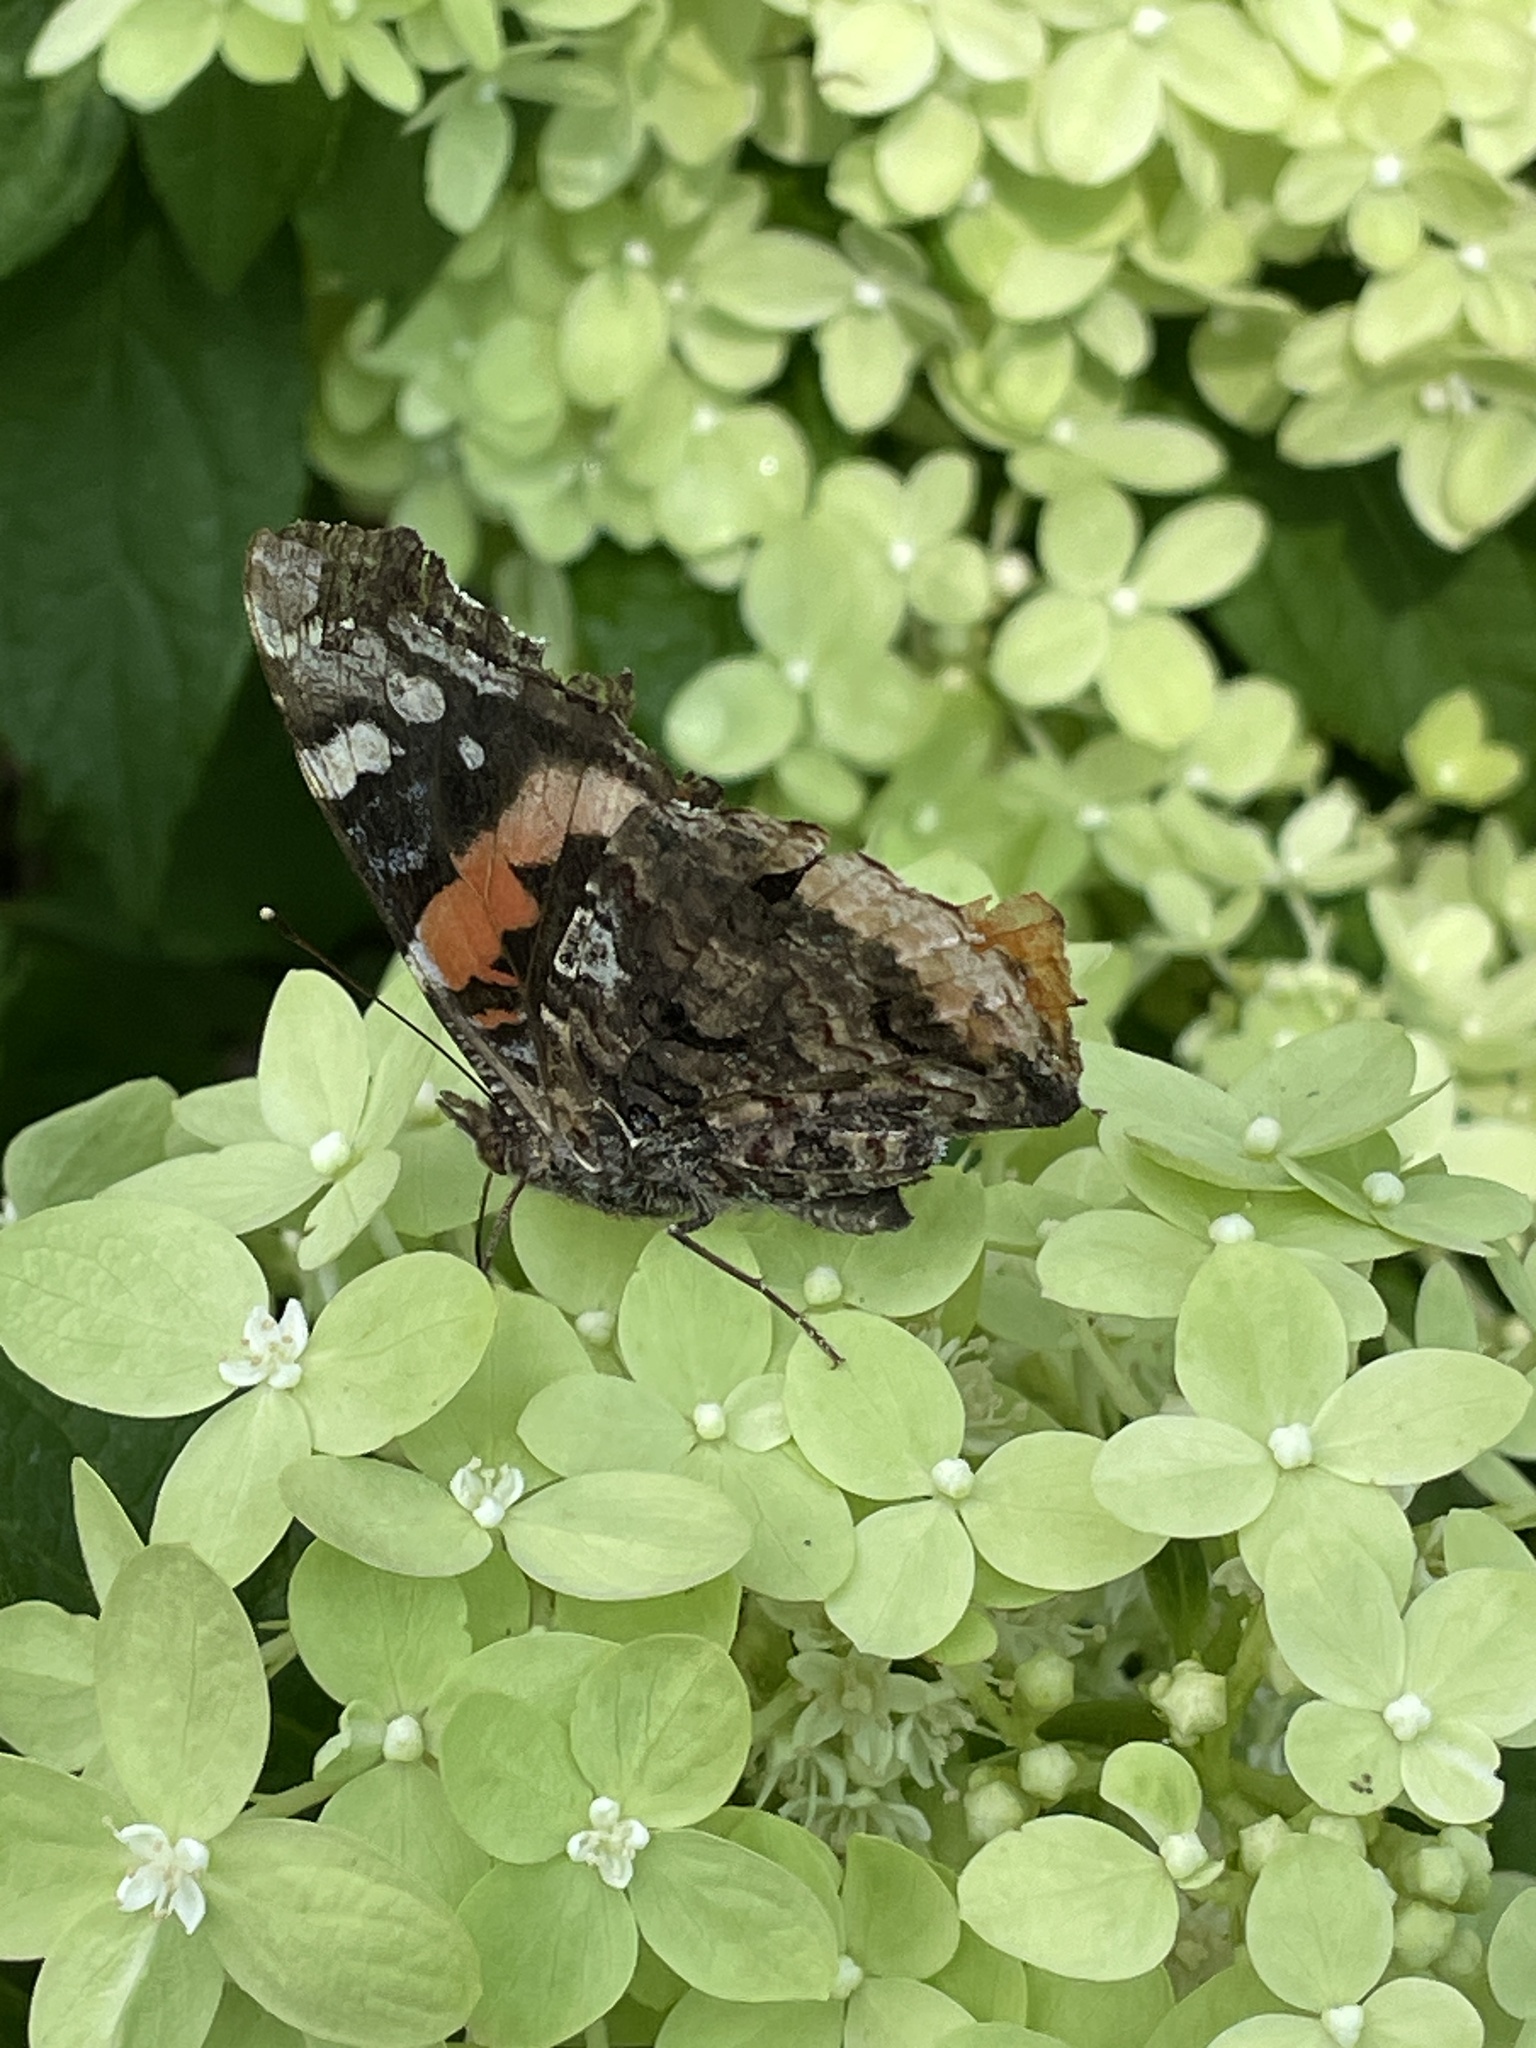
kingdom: Animalia
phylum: Arthropoda
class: Insecta
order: Lepidoptera
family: Nymphalidae
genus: Vanessa
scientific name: Vanessa atalanta
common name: Red admiral
